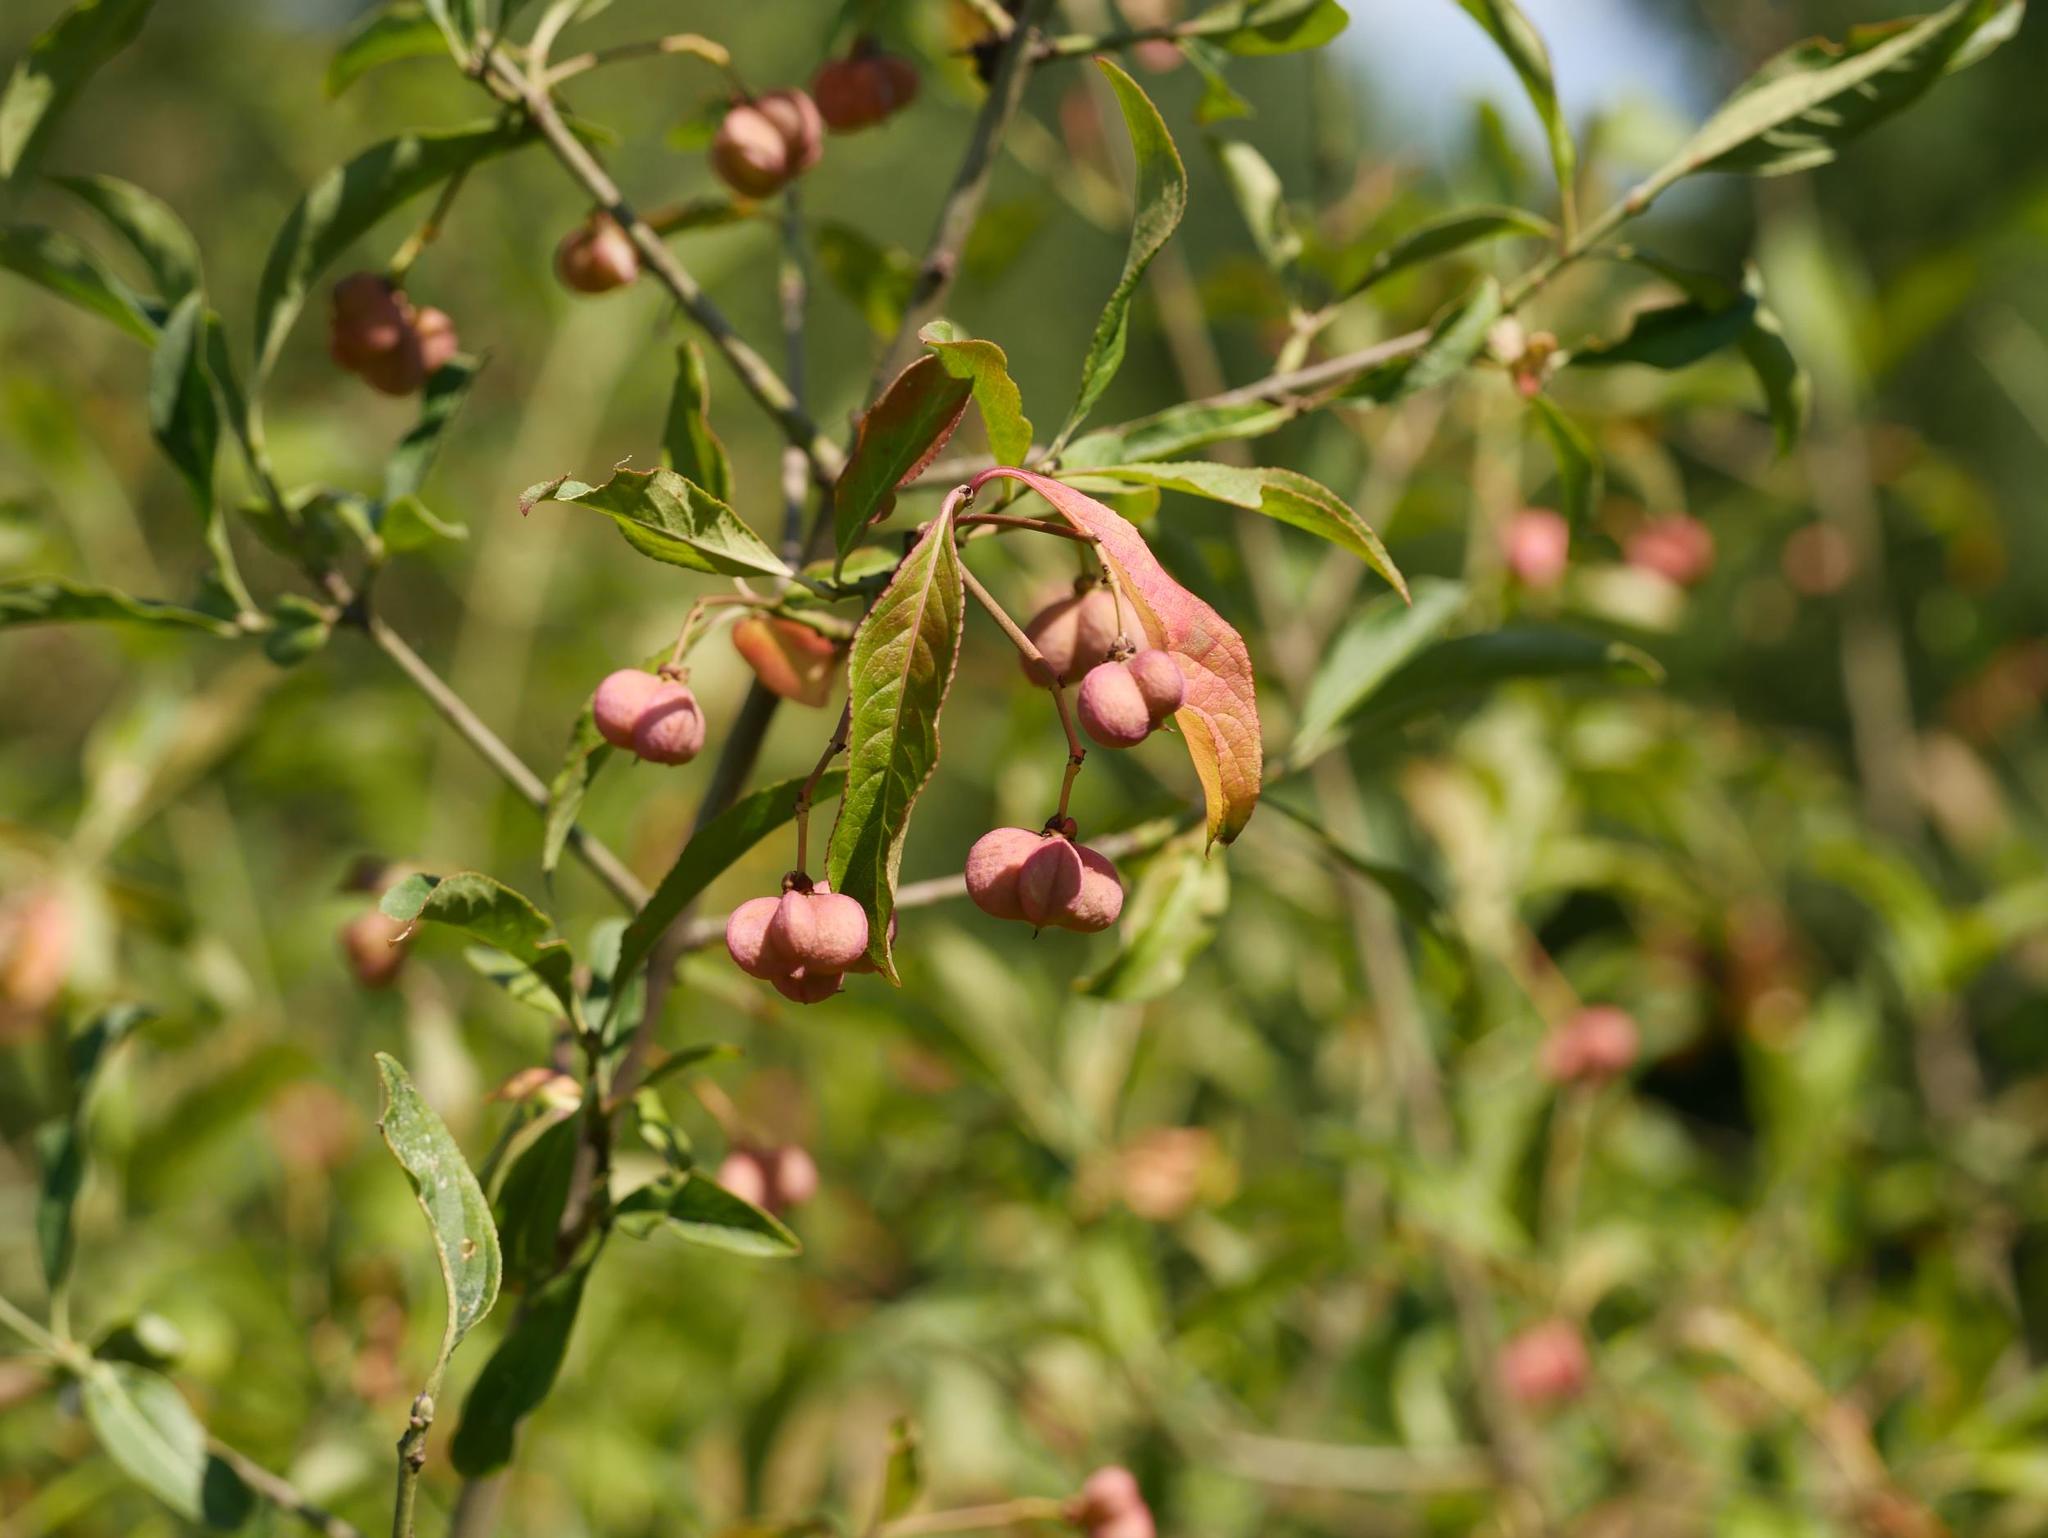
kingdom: Plantae
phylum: Tracheophyta
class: Magnoliopsida
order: Celastrales
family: Celastraceae
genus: Euonymus
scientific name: Euonymus europaeus
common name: Spindle
